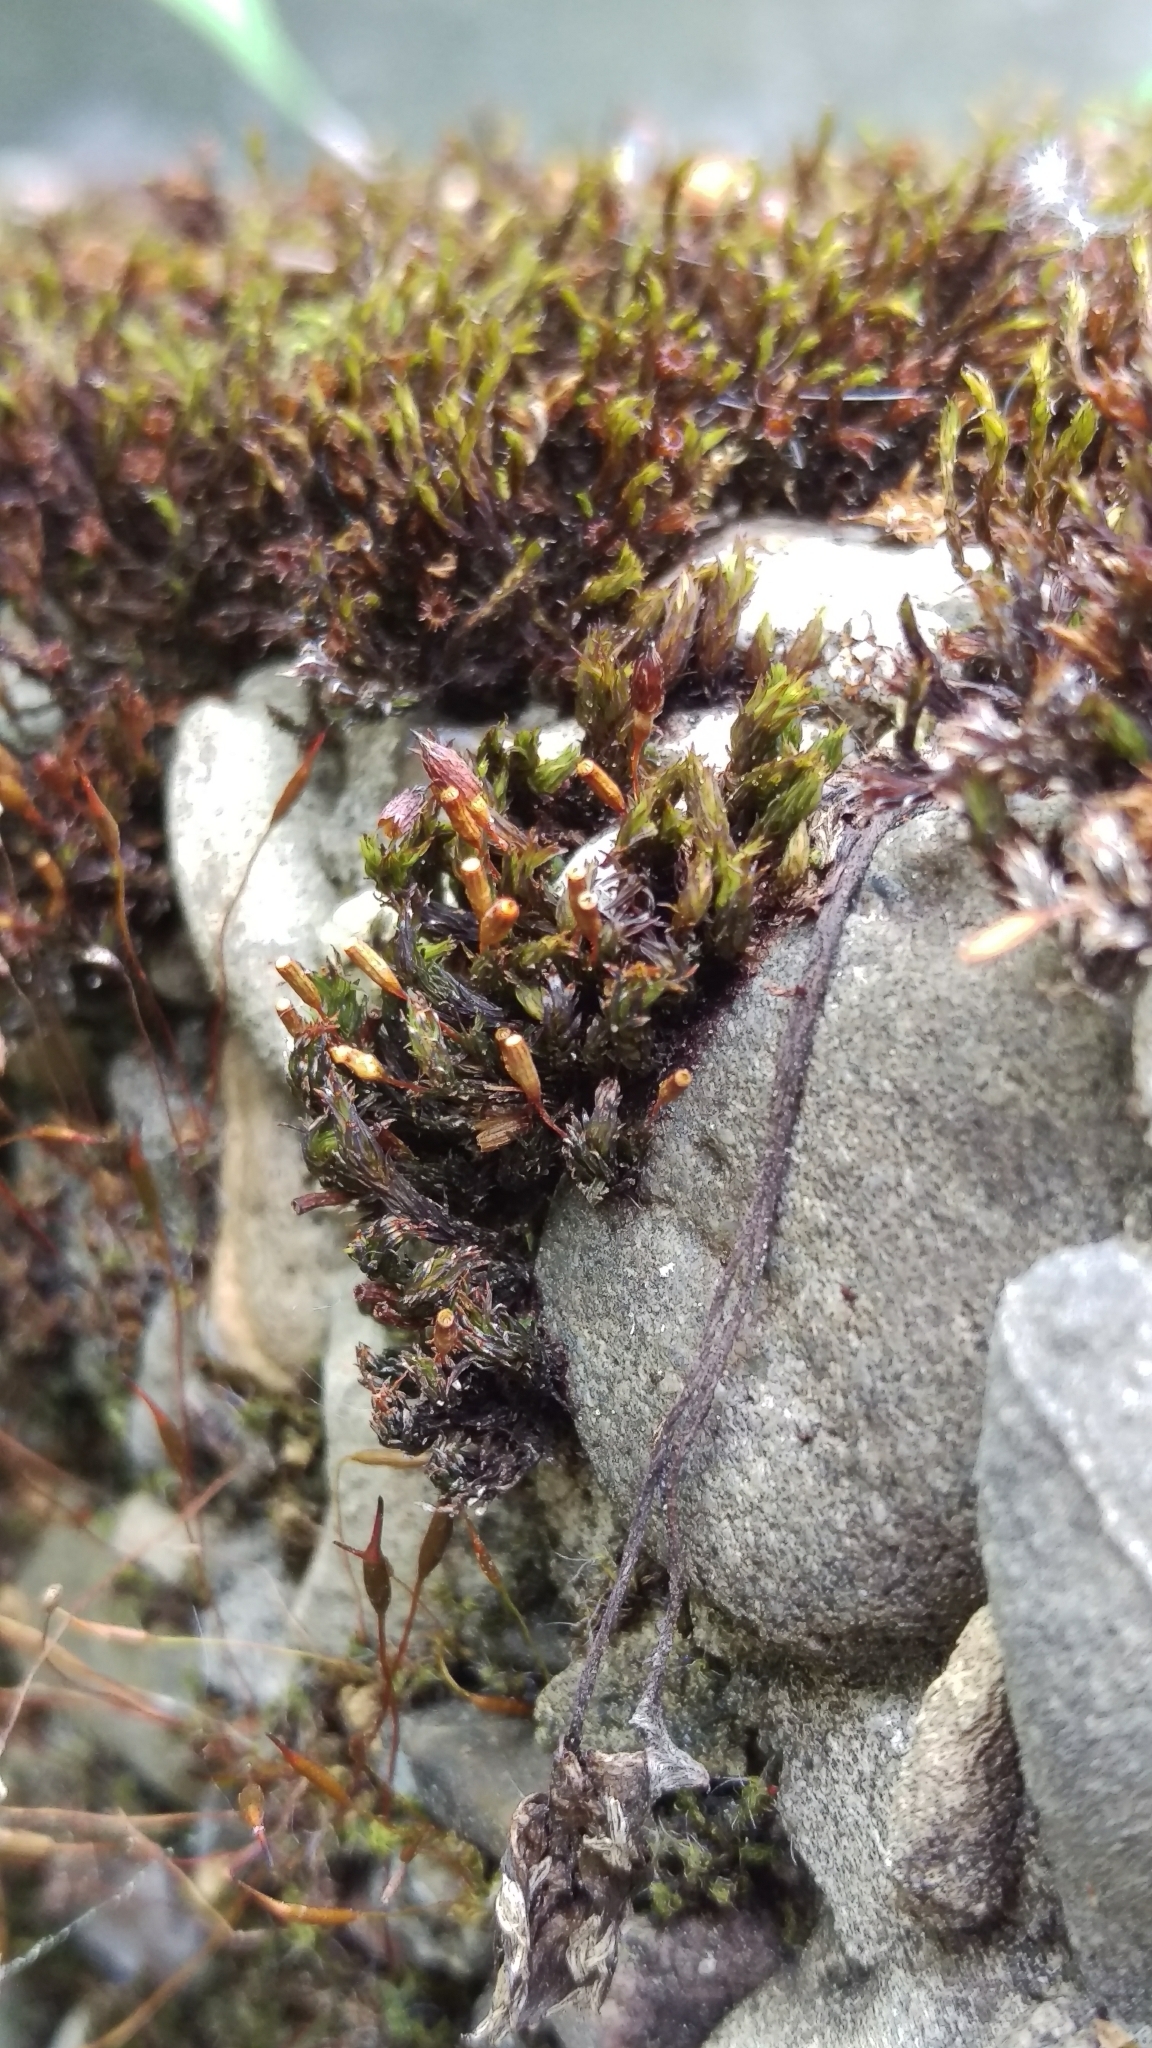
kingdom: Plantae
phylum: Bryophyta
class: Bryopsida
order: Orthotrichales
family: Orthotrichaceae
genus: Orthotrichum
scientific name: Orthotrichum anomalum
